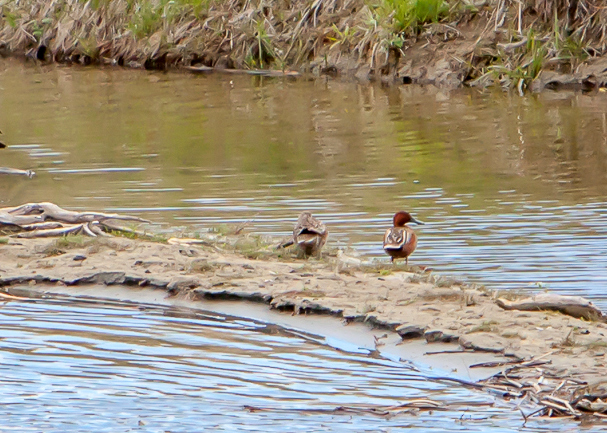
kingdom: Animalia
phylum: Chordata
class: Aves
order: Anseriformes
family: Anatidae
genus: Spatula
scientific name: Spatula cyanoptera
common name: Cinnamon teal
